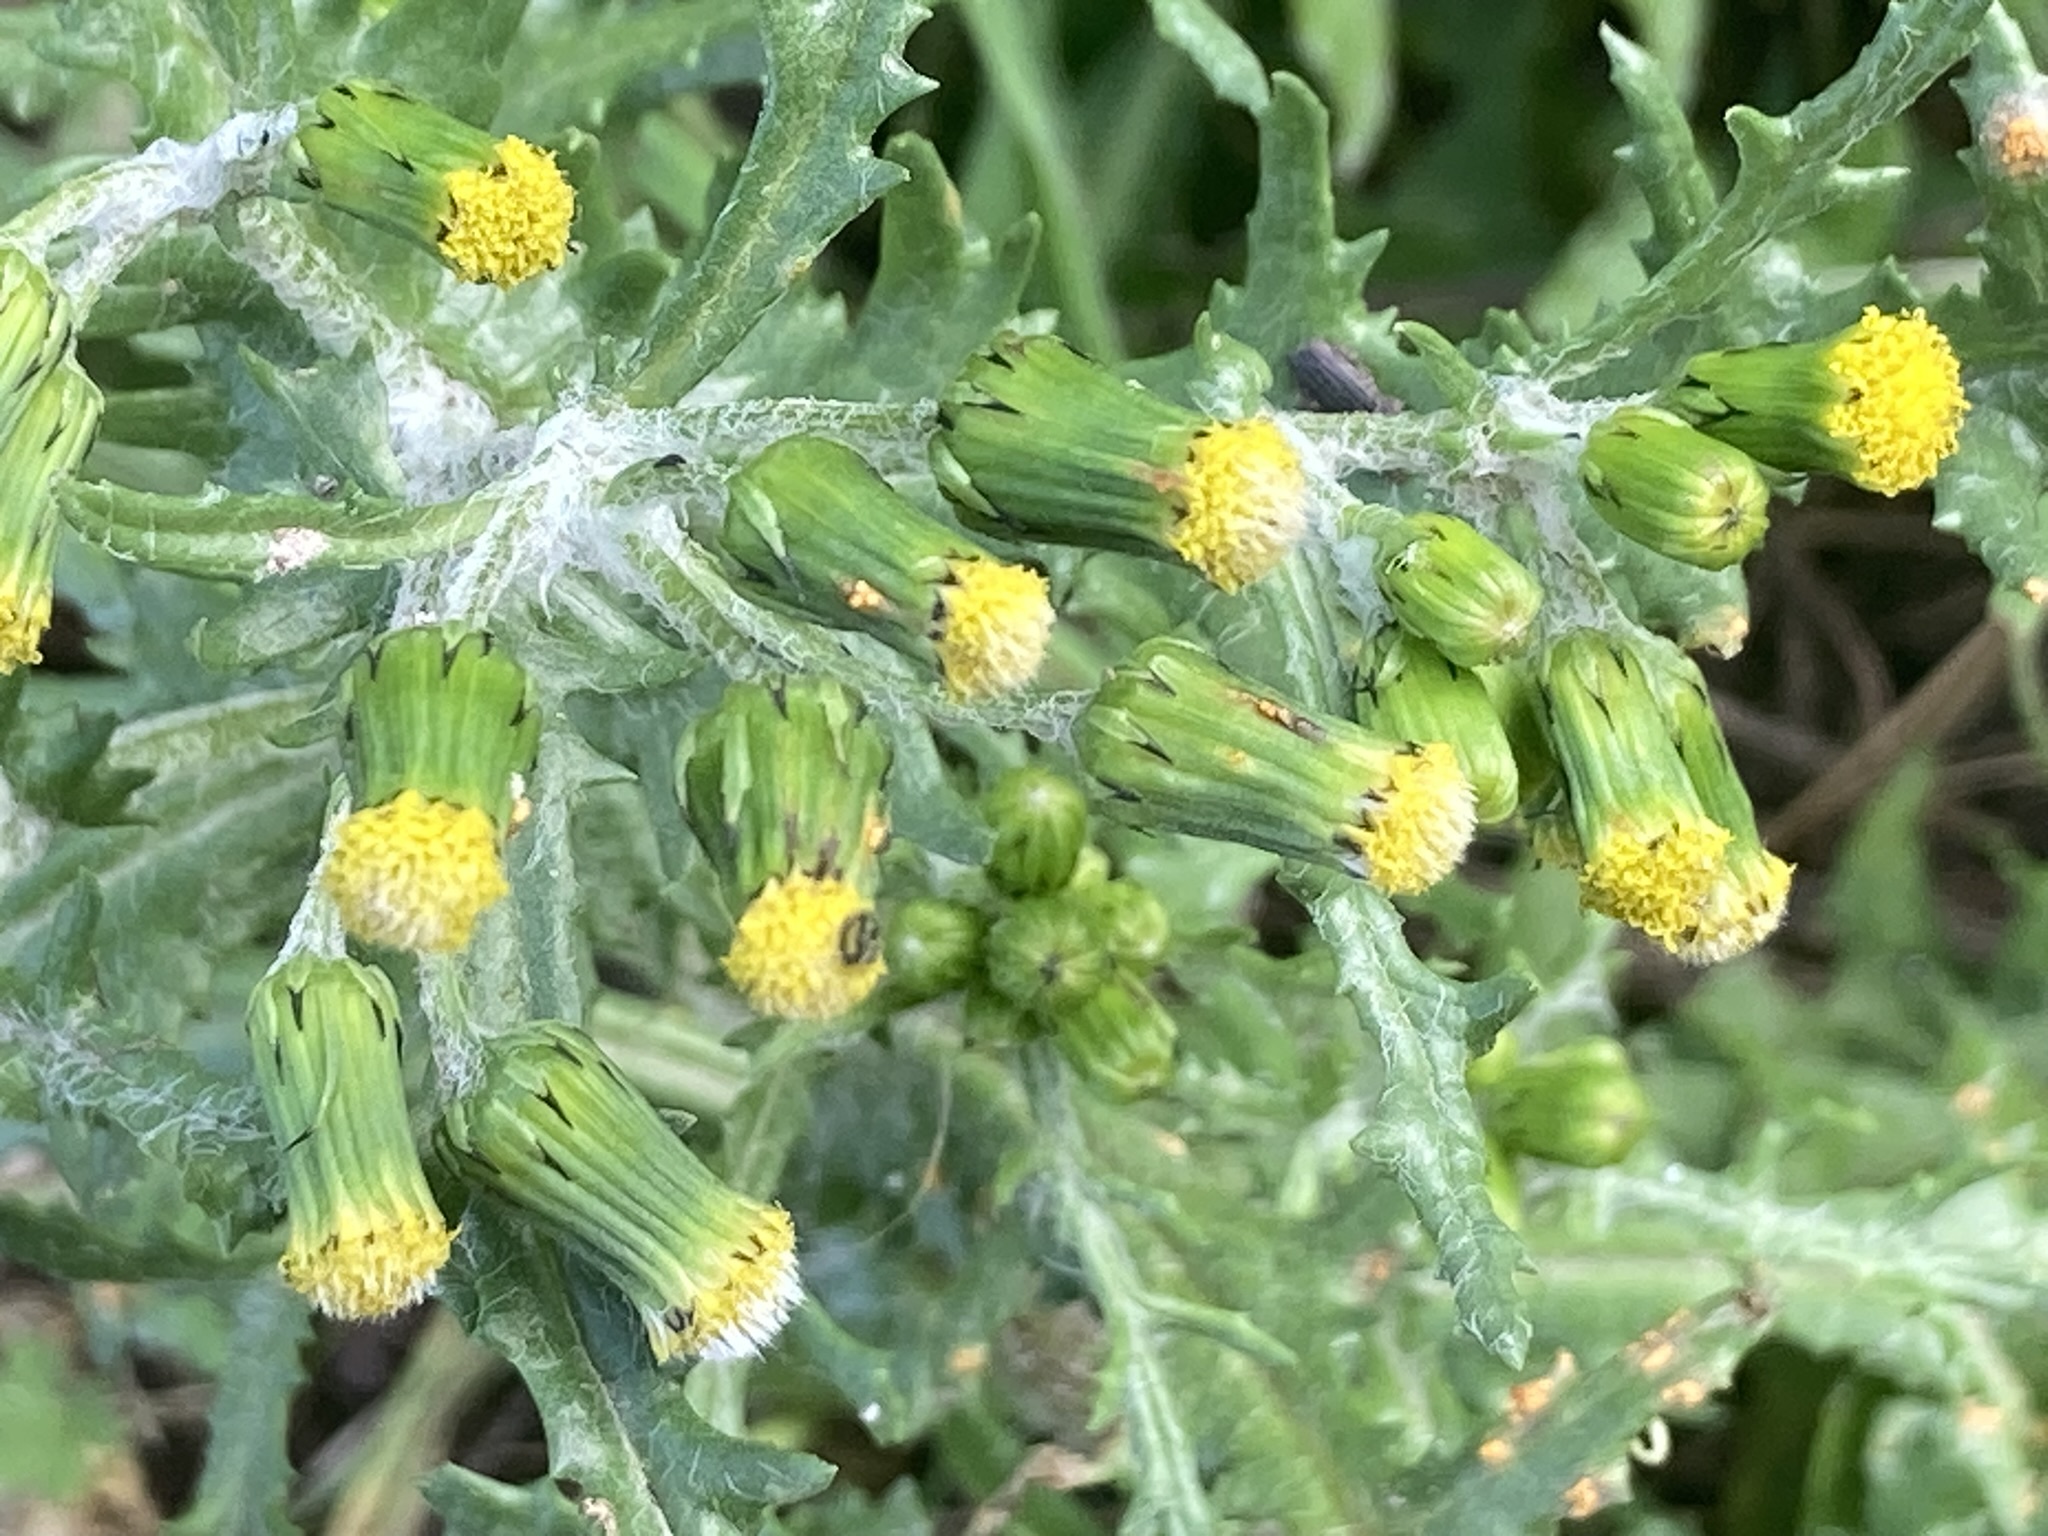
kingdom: Plantae
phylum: Tracheophyta
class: Magnoliopsida
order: Asterales
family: Asteraceae
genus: Senecio
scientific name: Senecio vulgaris
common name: Old-man-in-the-spring
